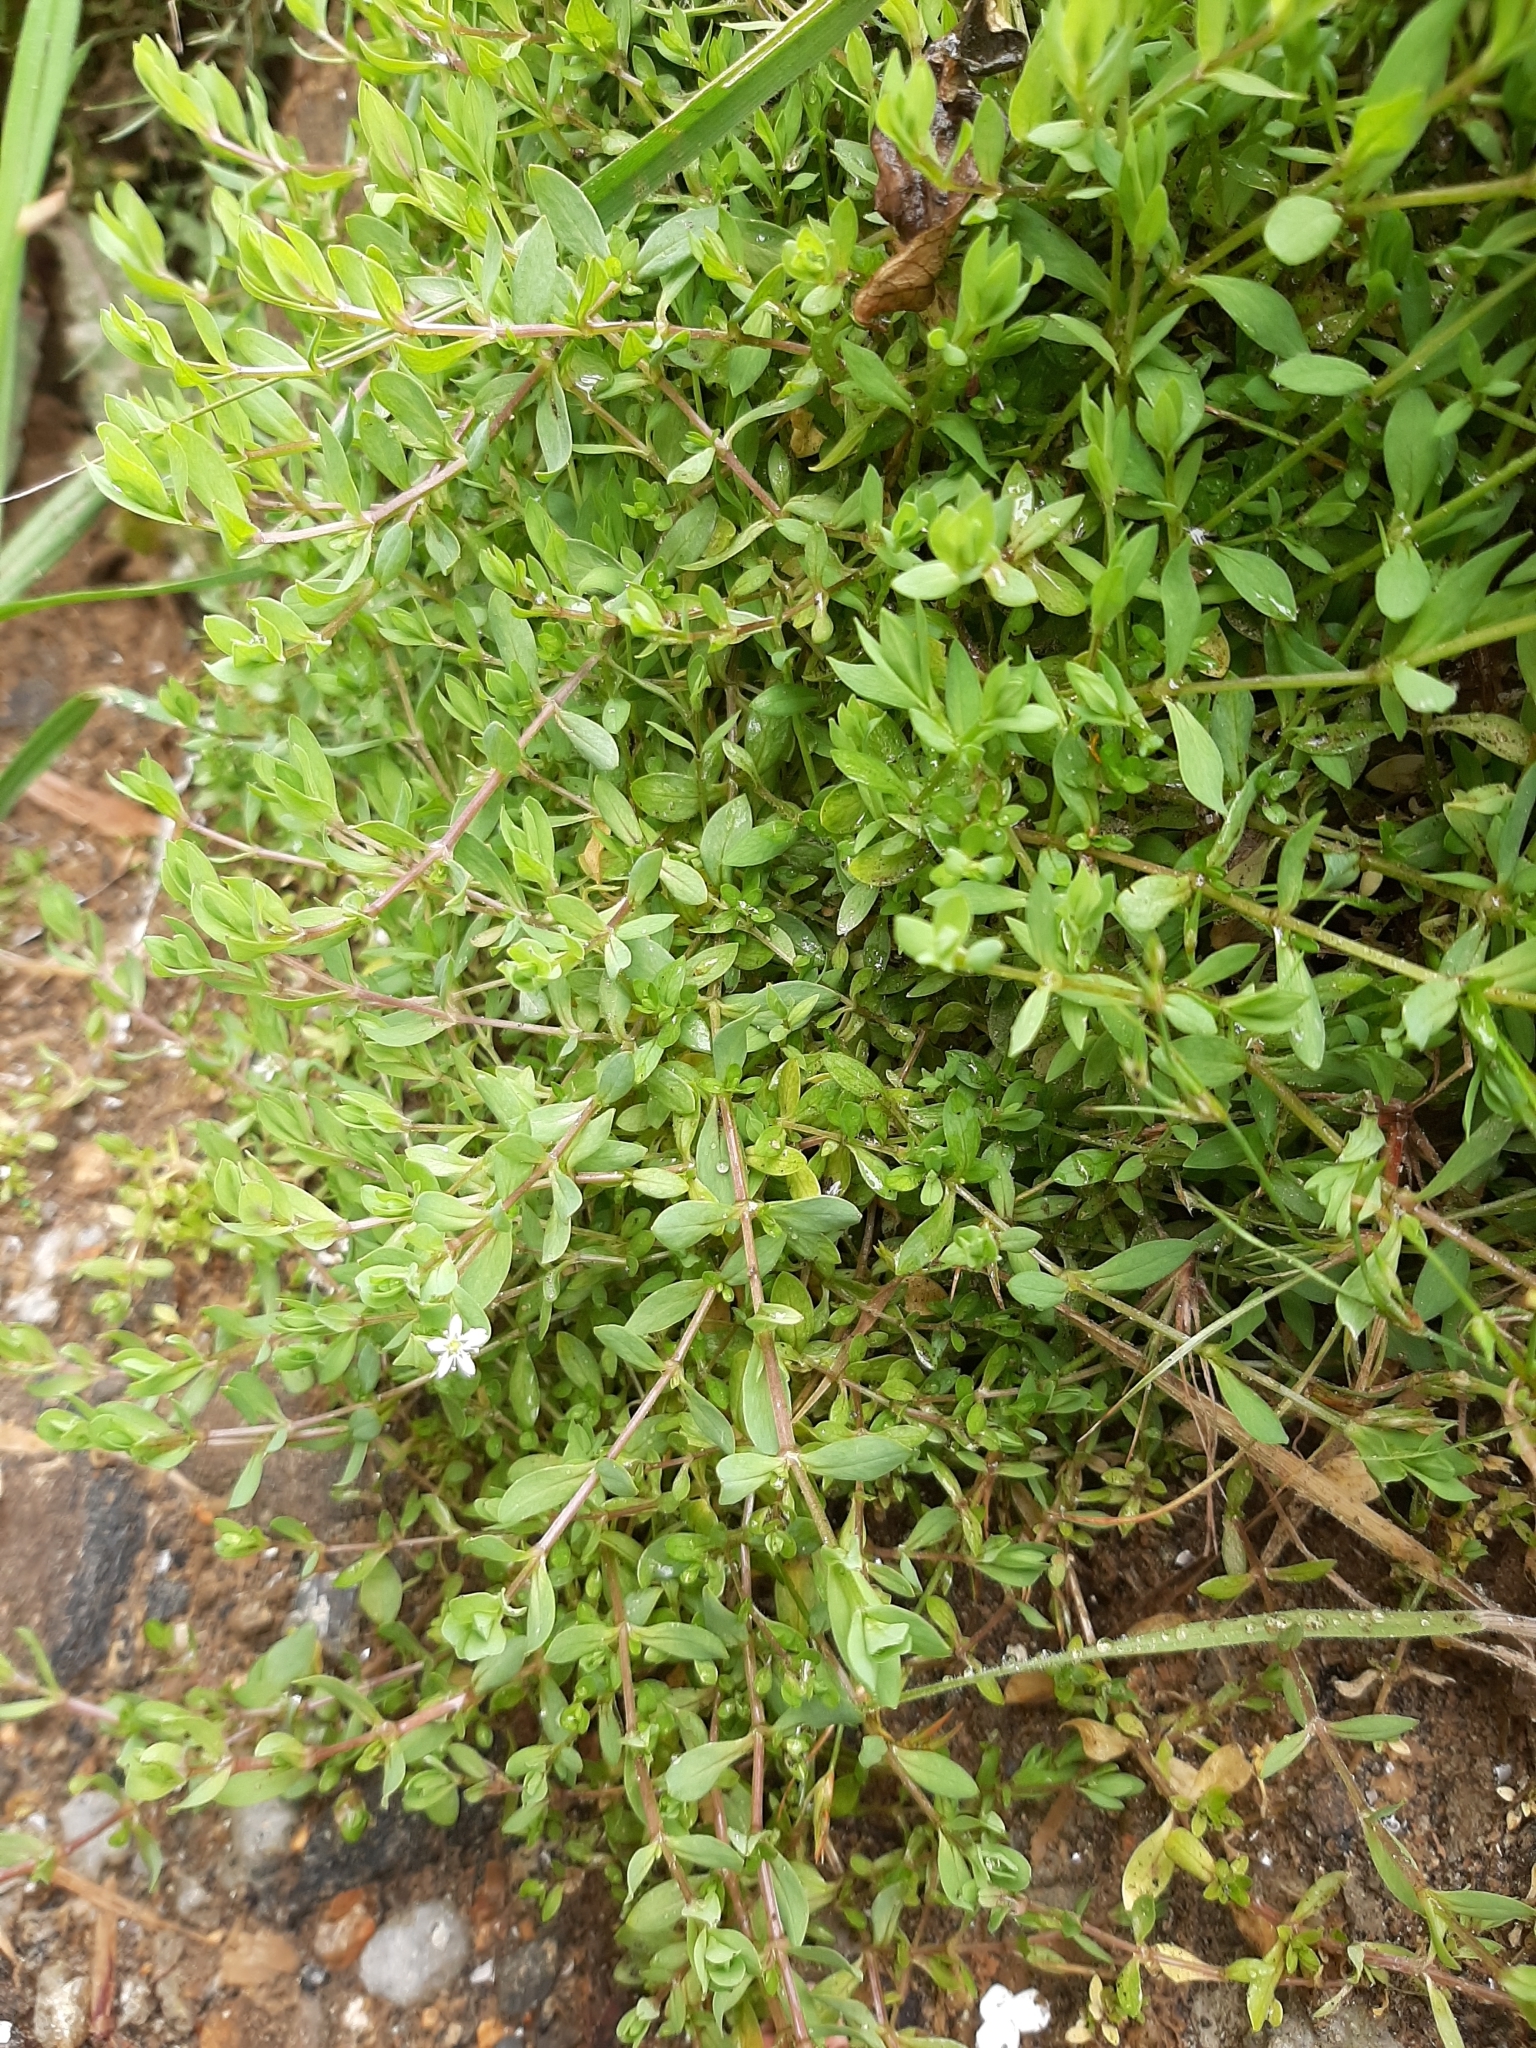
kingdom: Plantae
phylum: Tracheophyta
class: Magnoliopsida
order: Caryophyllales
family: Caryophyllaceae
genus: Stellaria
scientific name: Stellaria alsine
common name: Bog stitchwort
